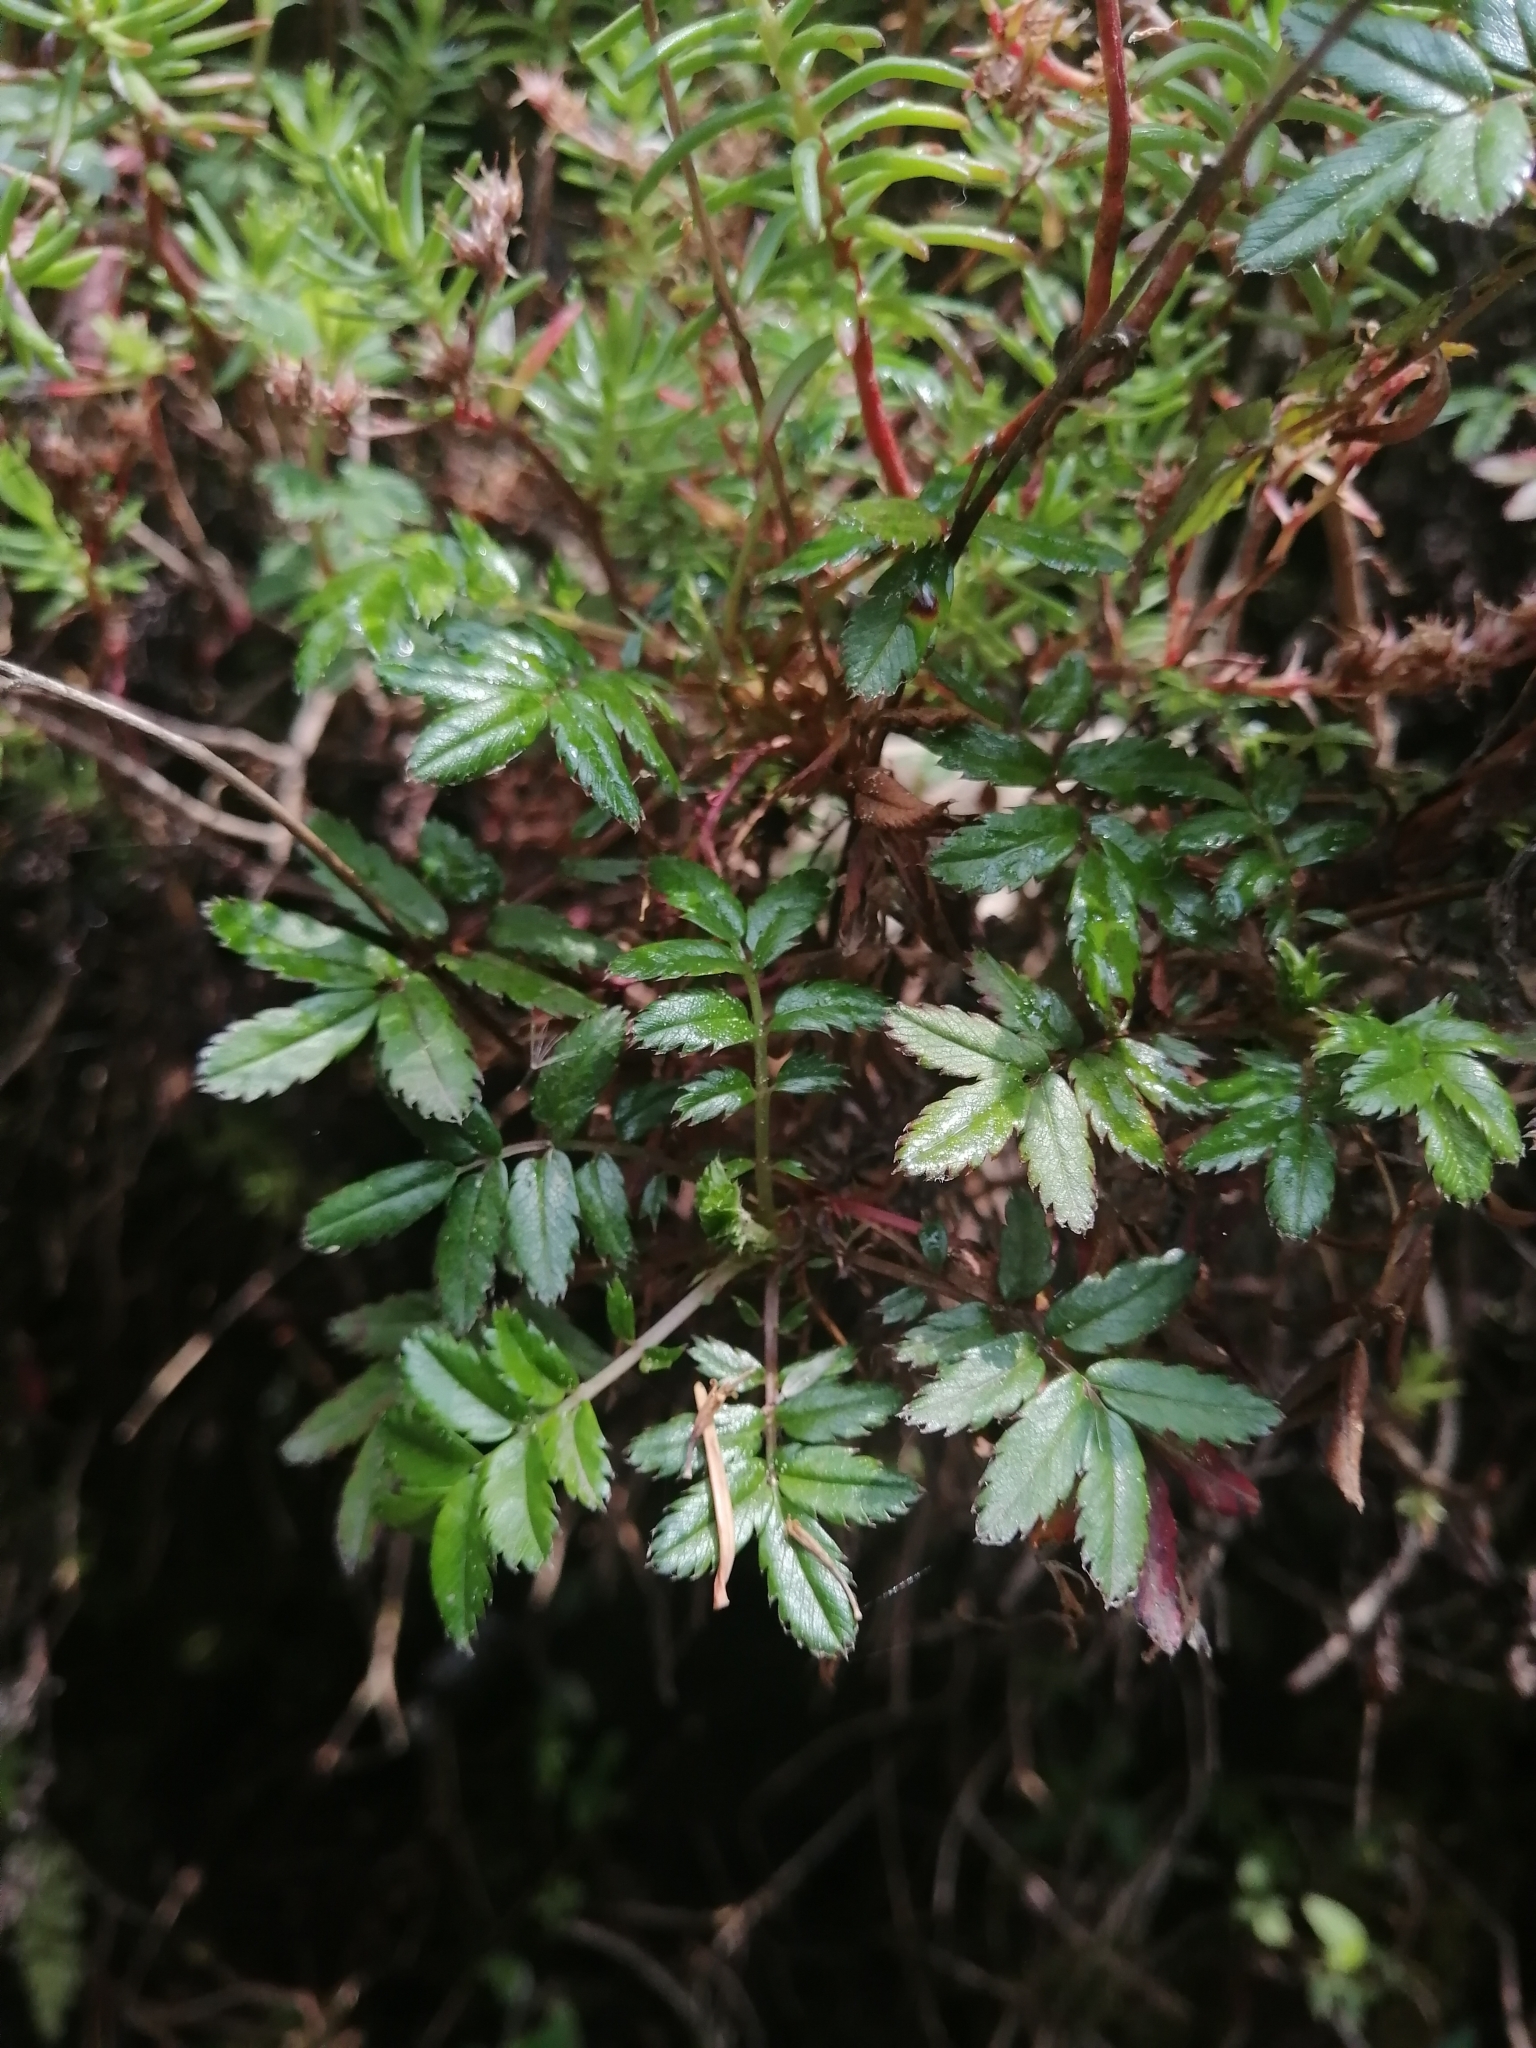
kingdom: Plantae
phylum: Tracheophyta
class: Magnoliopsida
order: Rosales
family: Rosaceae
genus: Acaena
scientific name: Acaena elongata
